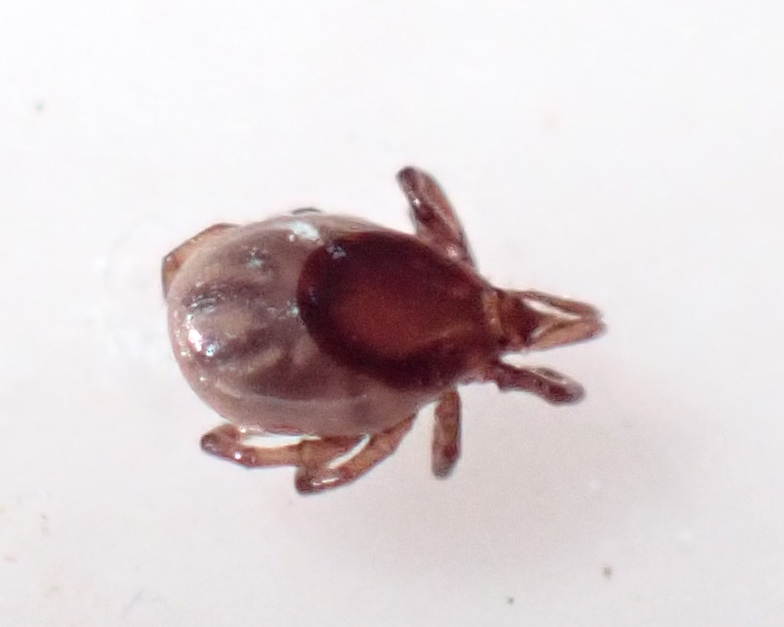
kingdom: Animalia
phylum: Arthropoda
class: Arachnida
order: Ixodida
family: Ixodidae
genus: Ixodes
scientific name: Ixodes scapularis
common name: Black legged tick
